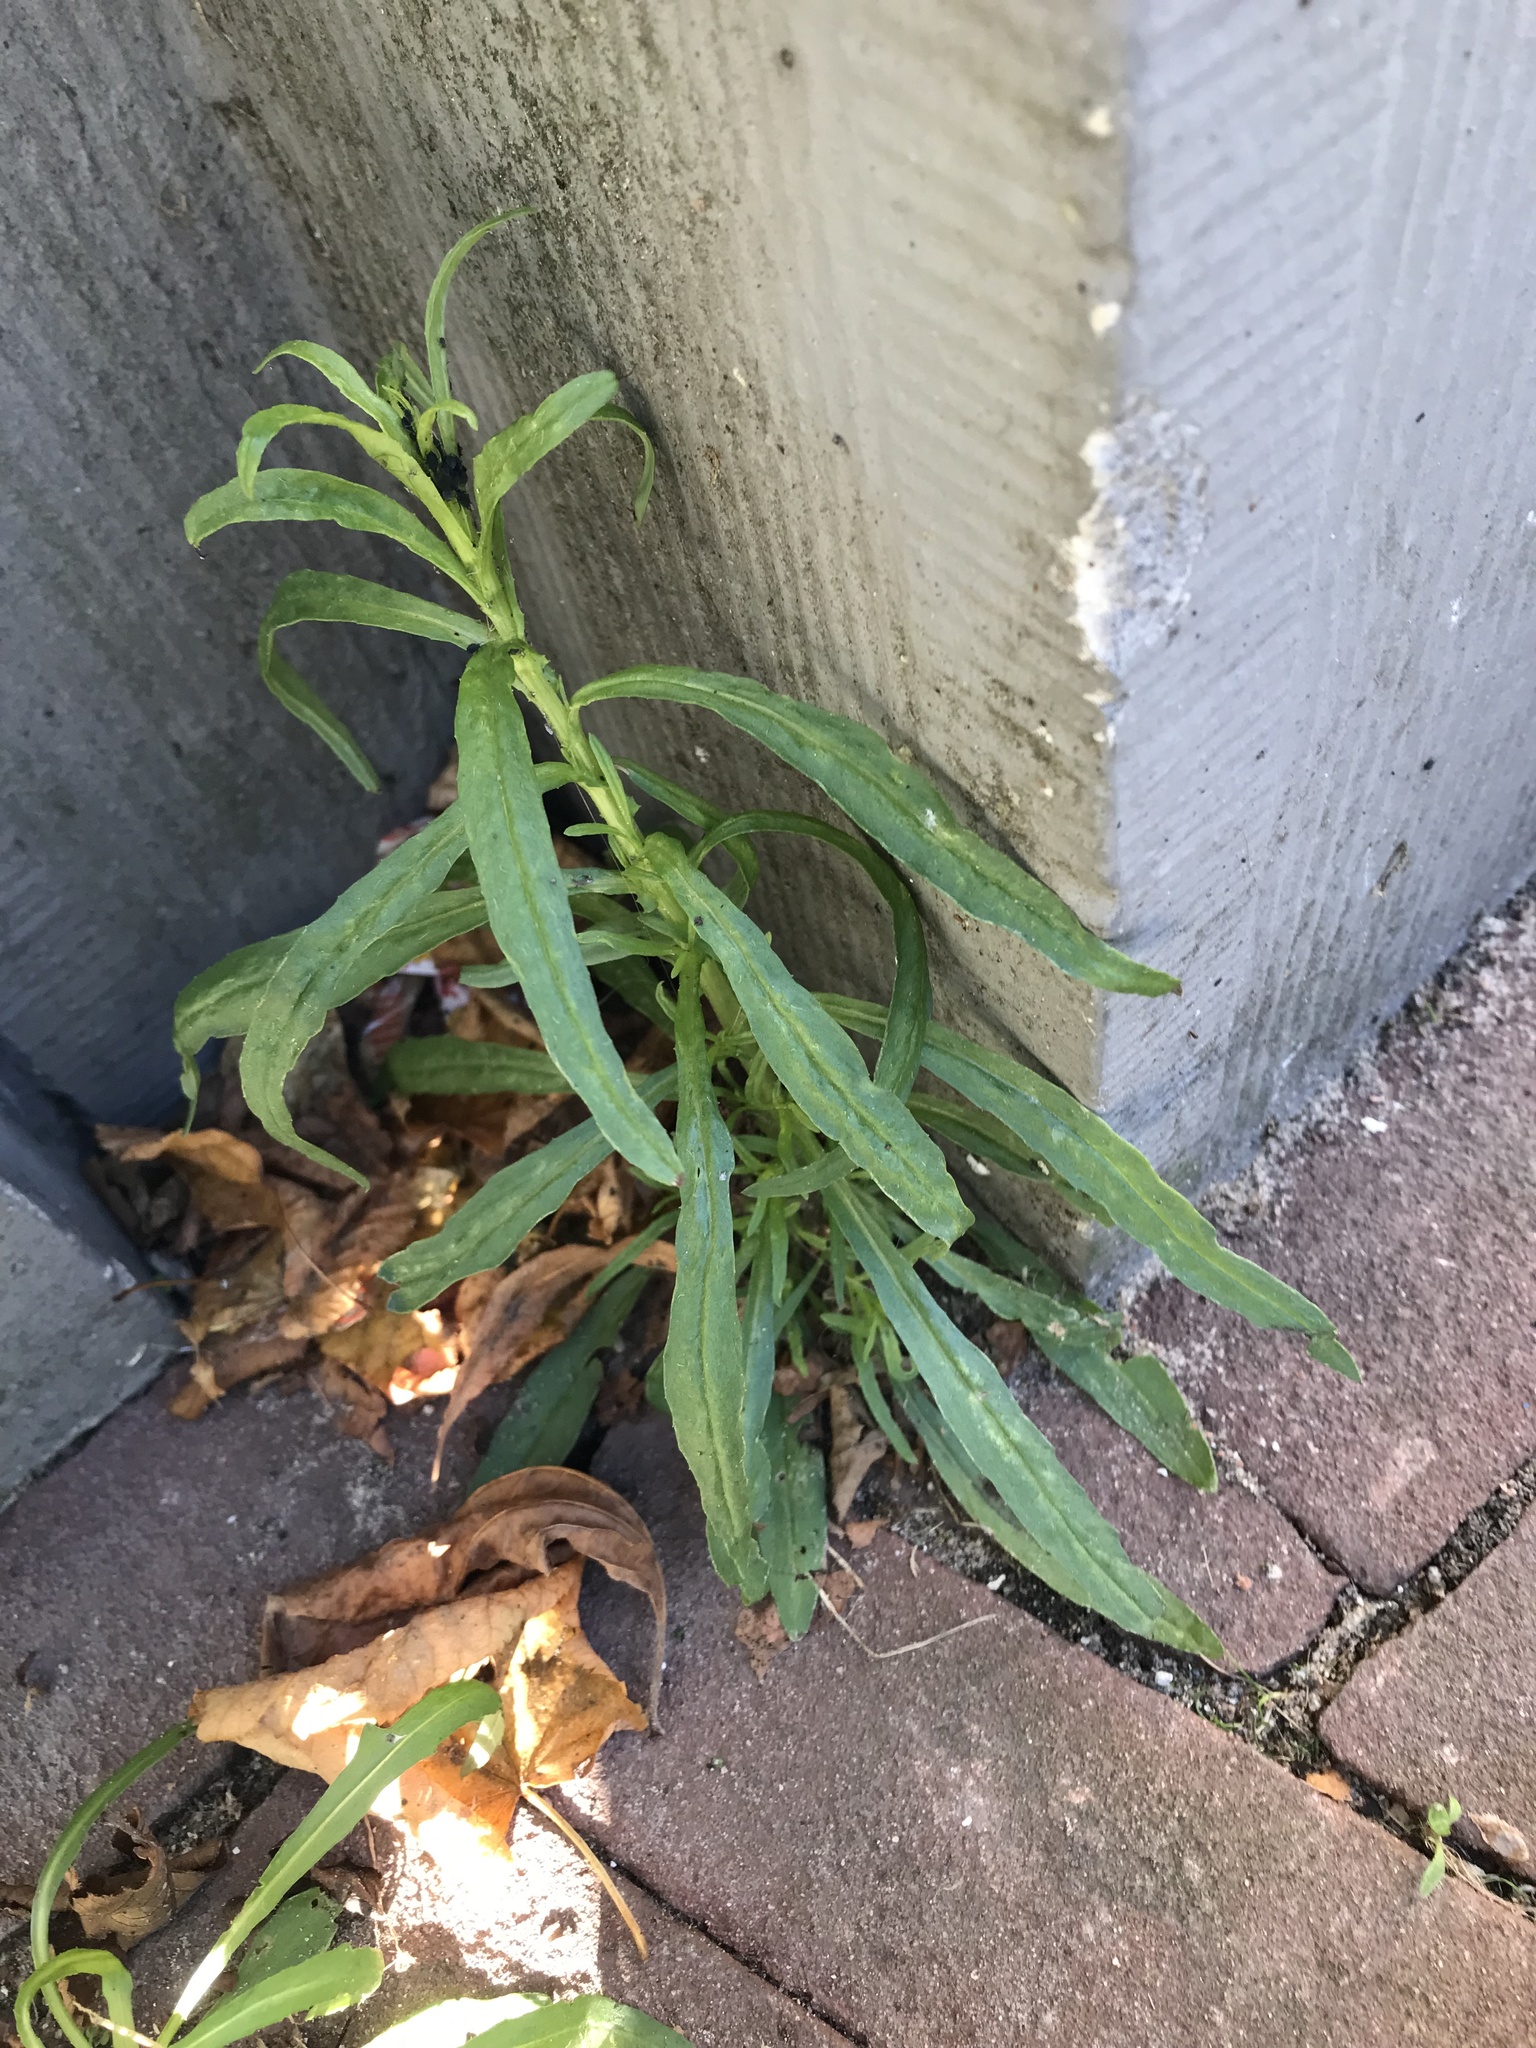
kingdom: Plantae
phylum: Tracheophyta
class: Magnoliopsida
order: Asterales
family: Asteraceae
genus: Senecio
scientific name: Senecio inaequidens
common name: Narrow-leaved ragwort
